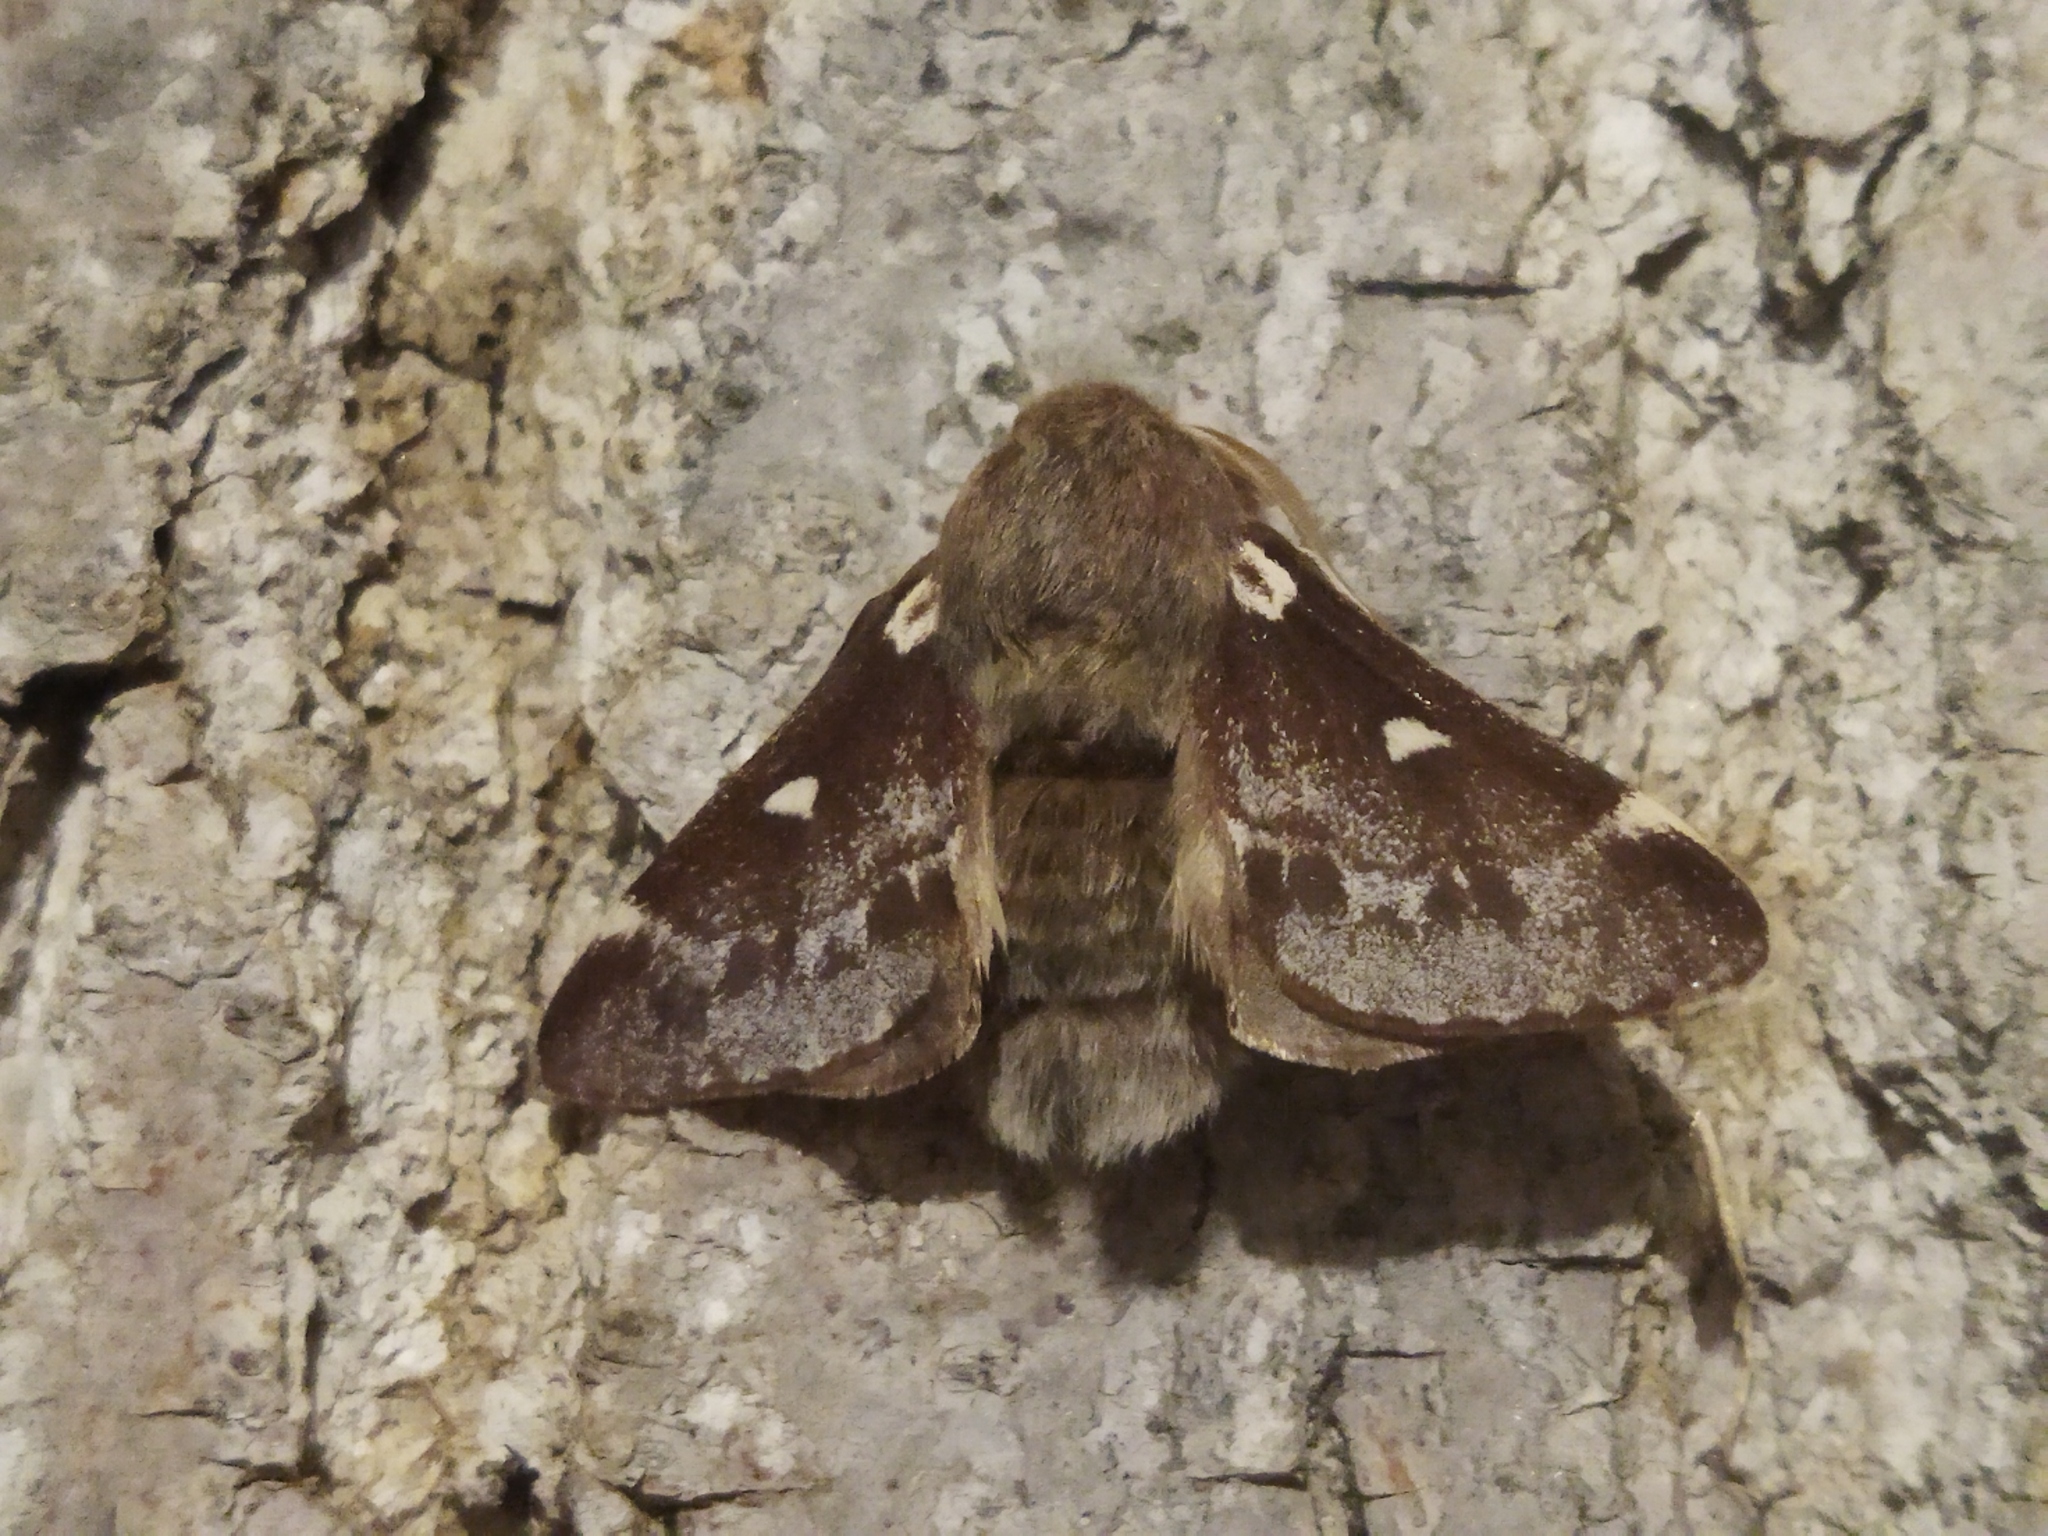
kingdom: Animalia
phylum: Arthropoda
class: Insecta
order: Lepidoptera
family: Lasiocampidae
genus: Eriogaster
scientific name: Eriogaster lanestris
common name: Small eggar
